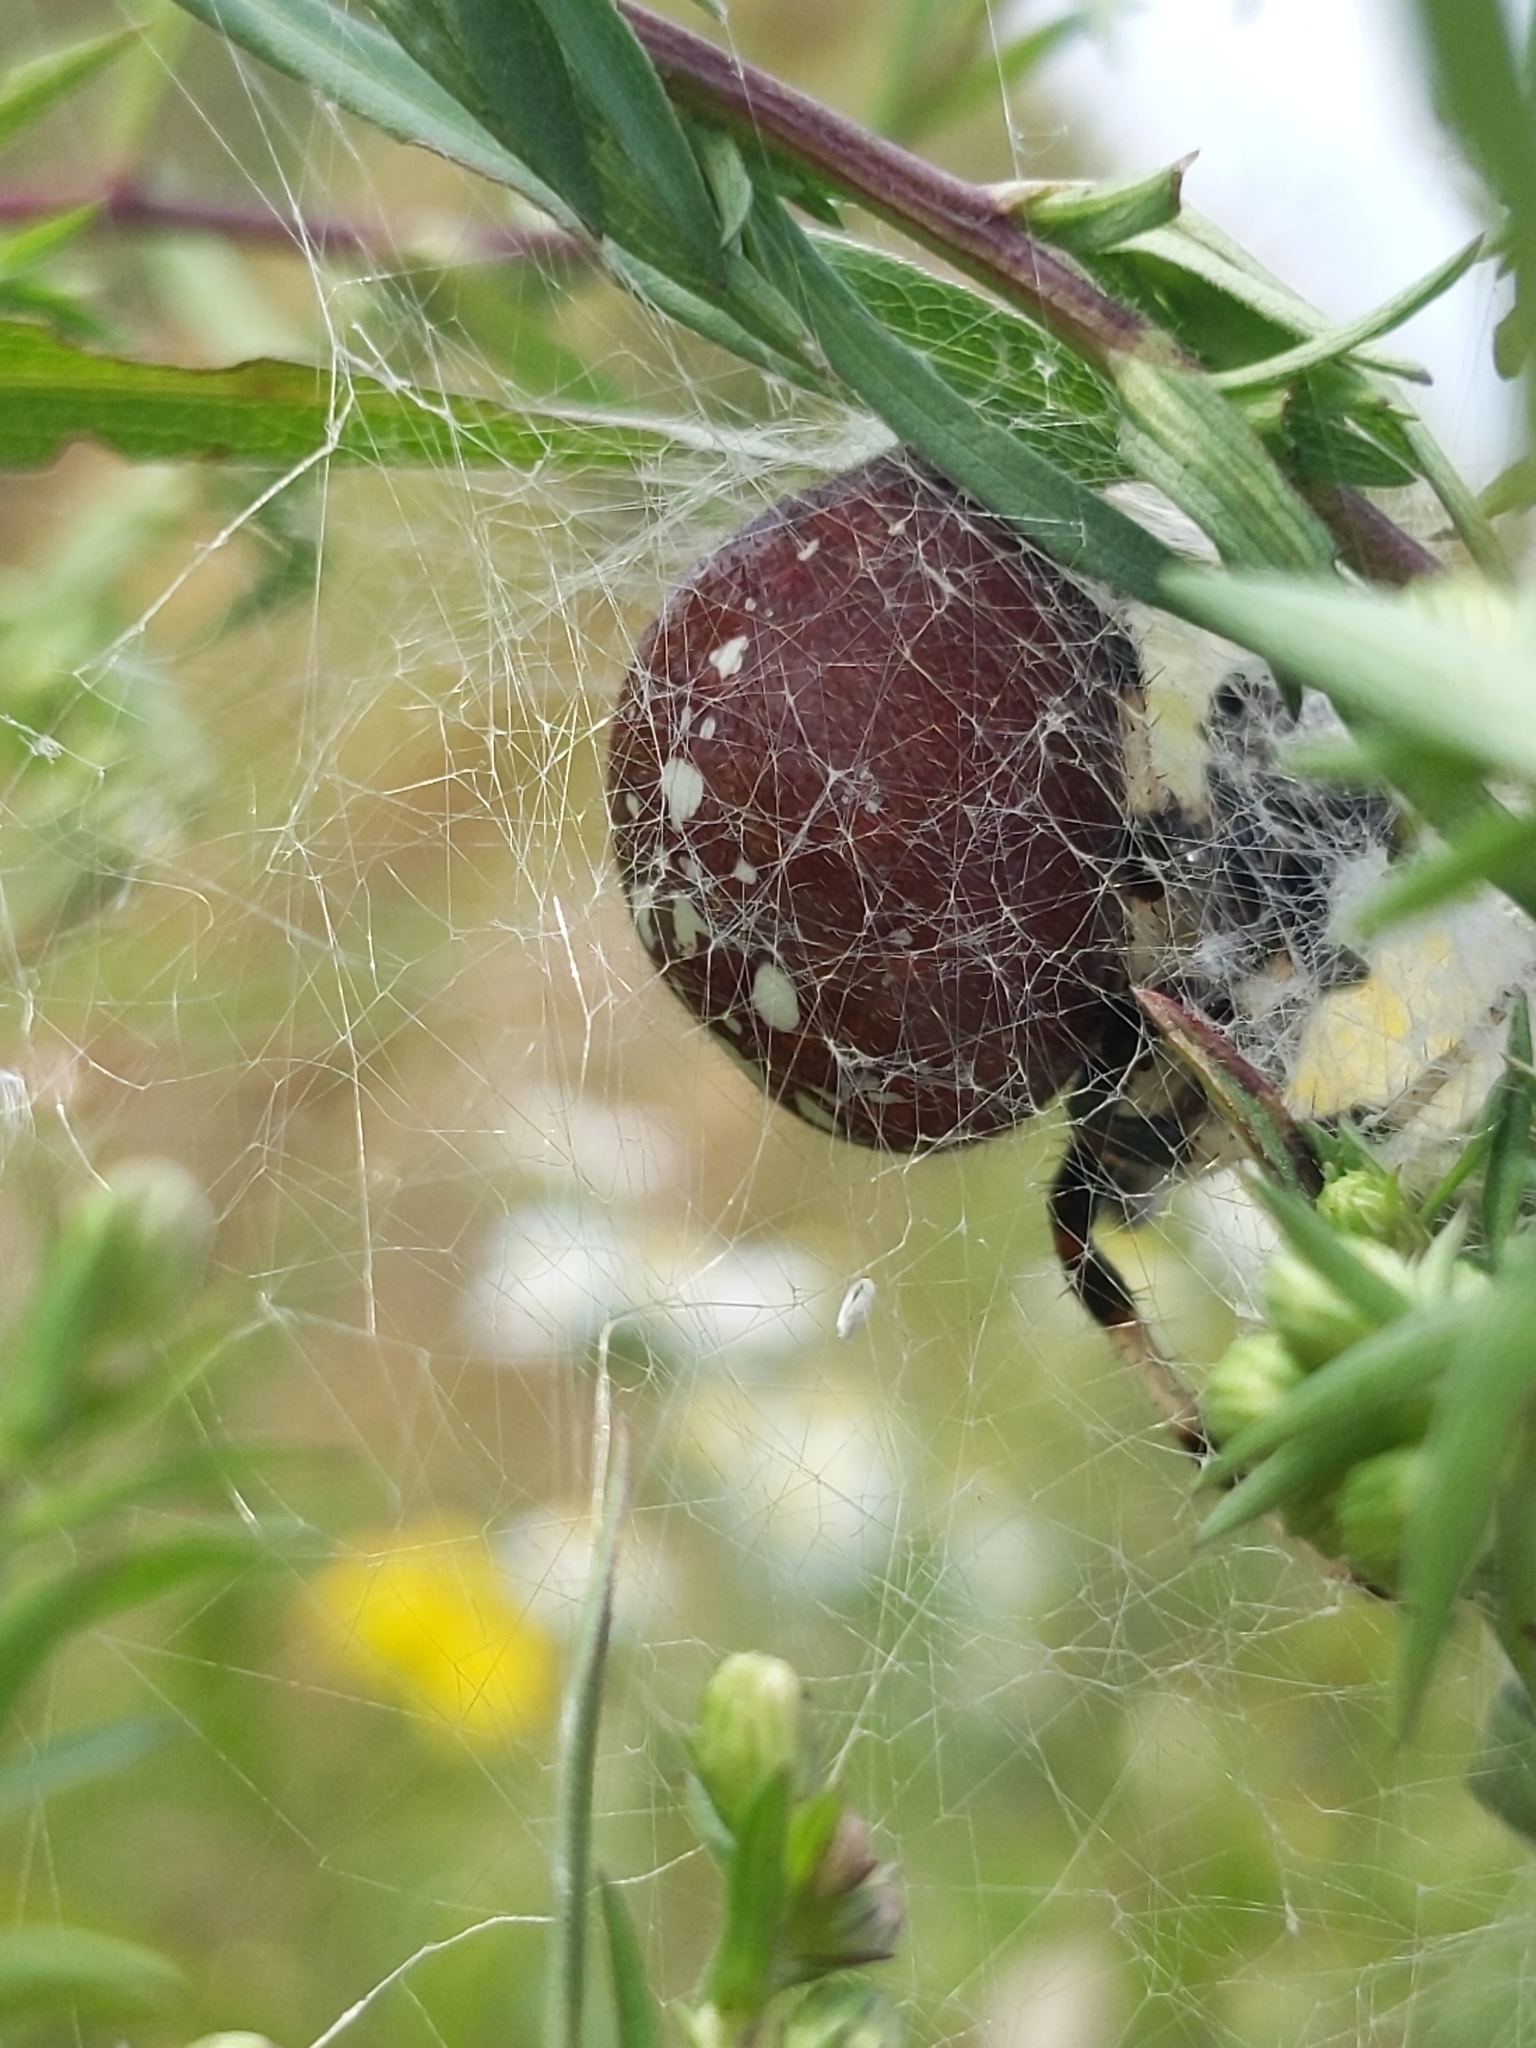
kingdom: Animalia
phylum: Arthropoda
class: Arachnida
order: Araneae
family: Araneidae
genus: Araneus
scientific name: Araneus trifolium
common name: Shamrock orbweaver
